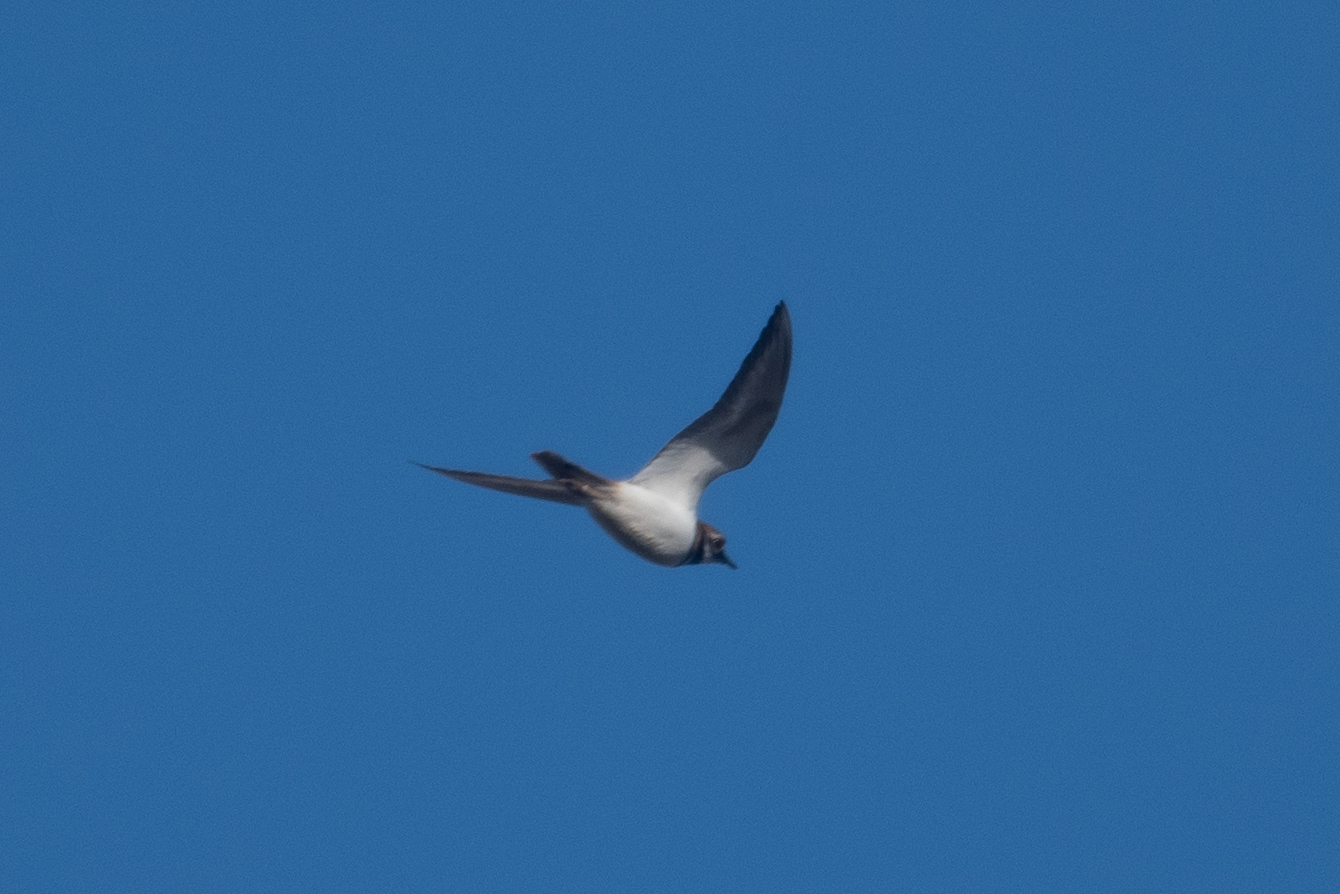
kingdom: Animalia
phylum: Chordata
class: Aves
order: Charadriiformes
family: Charadriidae
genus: Charadrius
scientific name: Charadrius vociferus
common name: Killdeer
